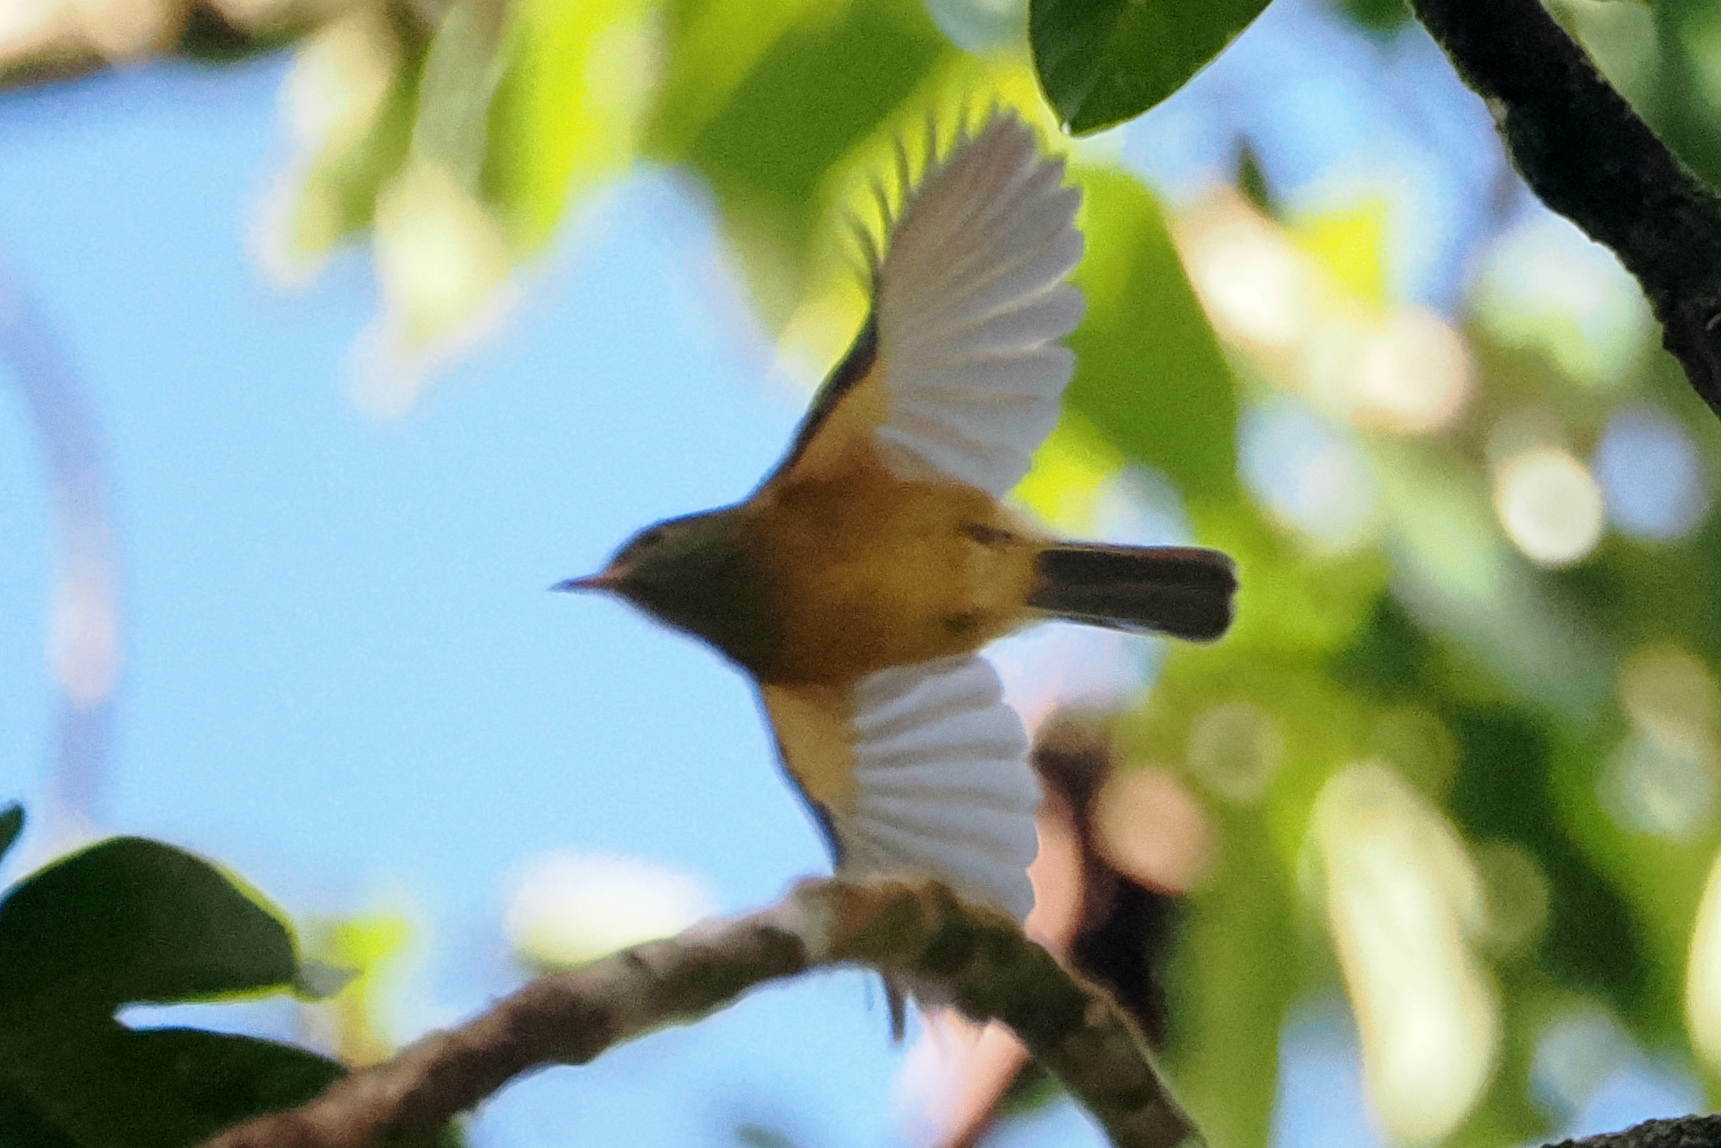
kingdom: Animalia
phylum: Chordata
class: Aves
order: Passeriformes
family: Tyrannidae
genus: Mionectes
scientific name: Mionectes oleagineus
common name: Ochre-bellied flycatcher
